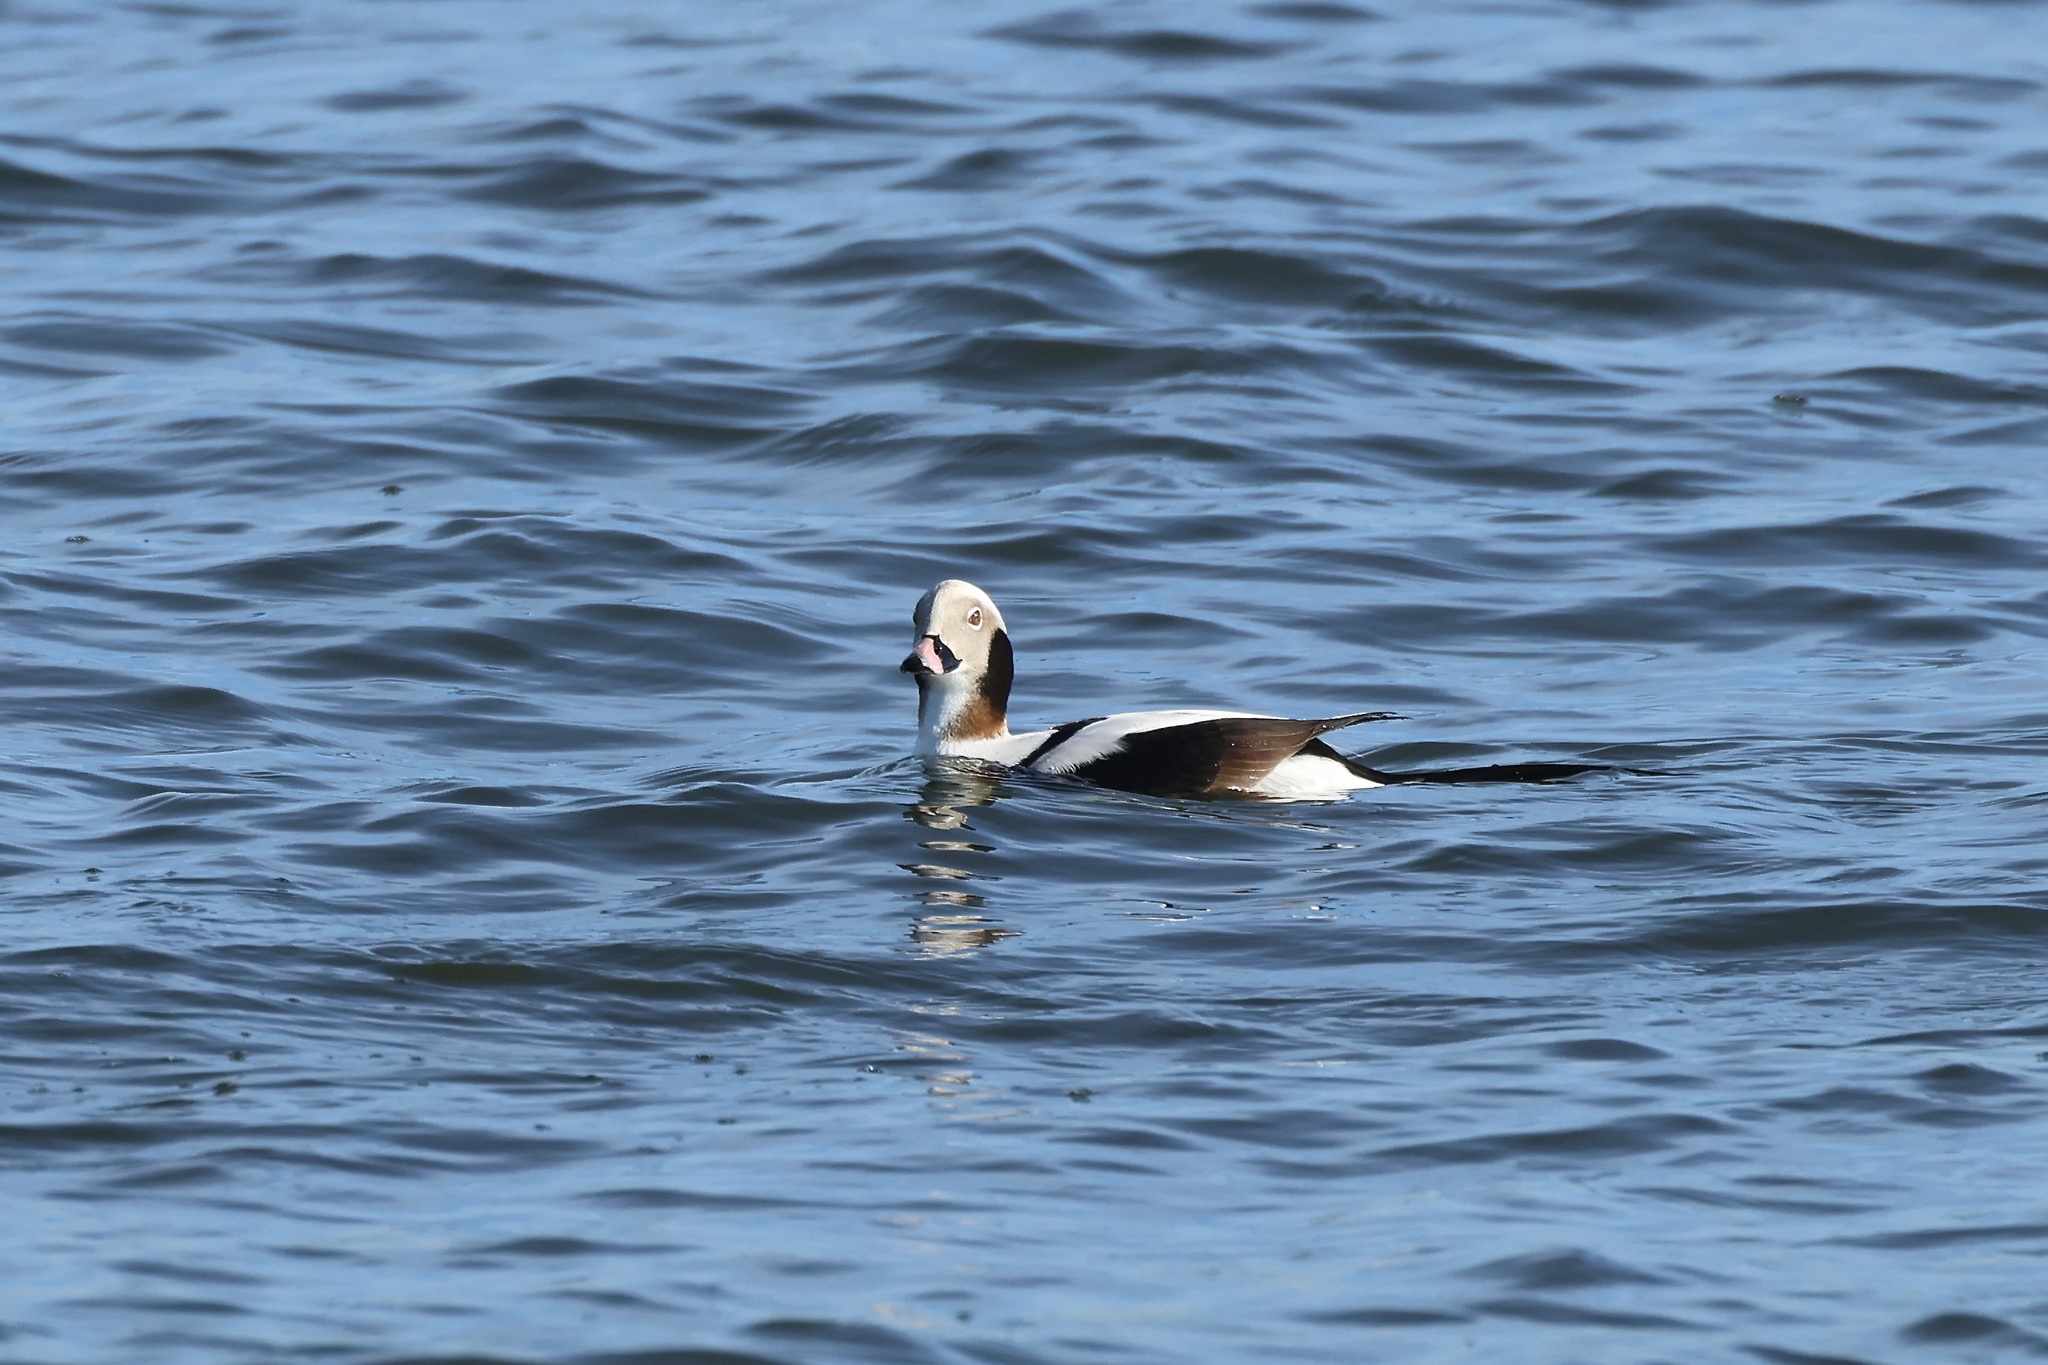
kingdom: Animalia
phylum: Chordata
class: Aves
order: Anseriformes
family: Anatidae
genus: Clangula
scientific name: Clangula hyemalis
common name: Long-tailed duck
